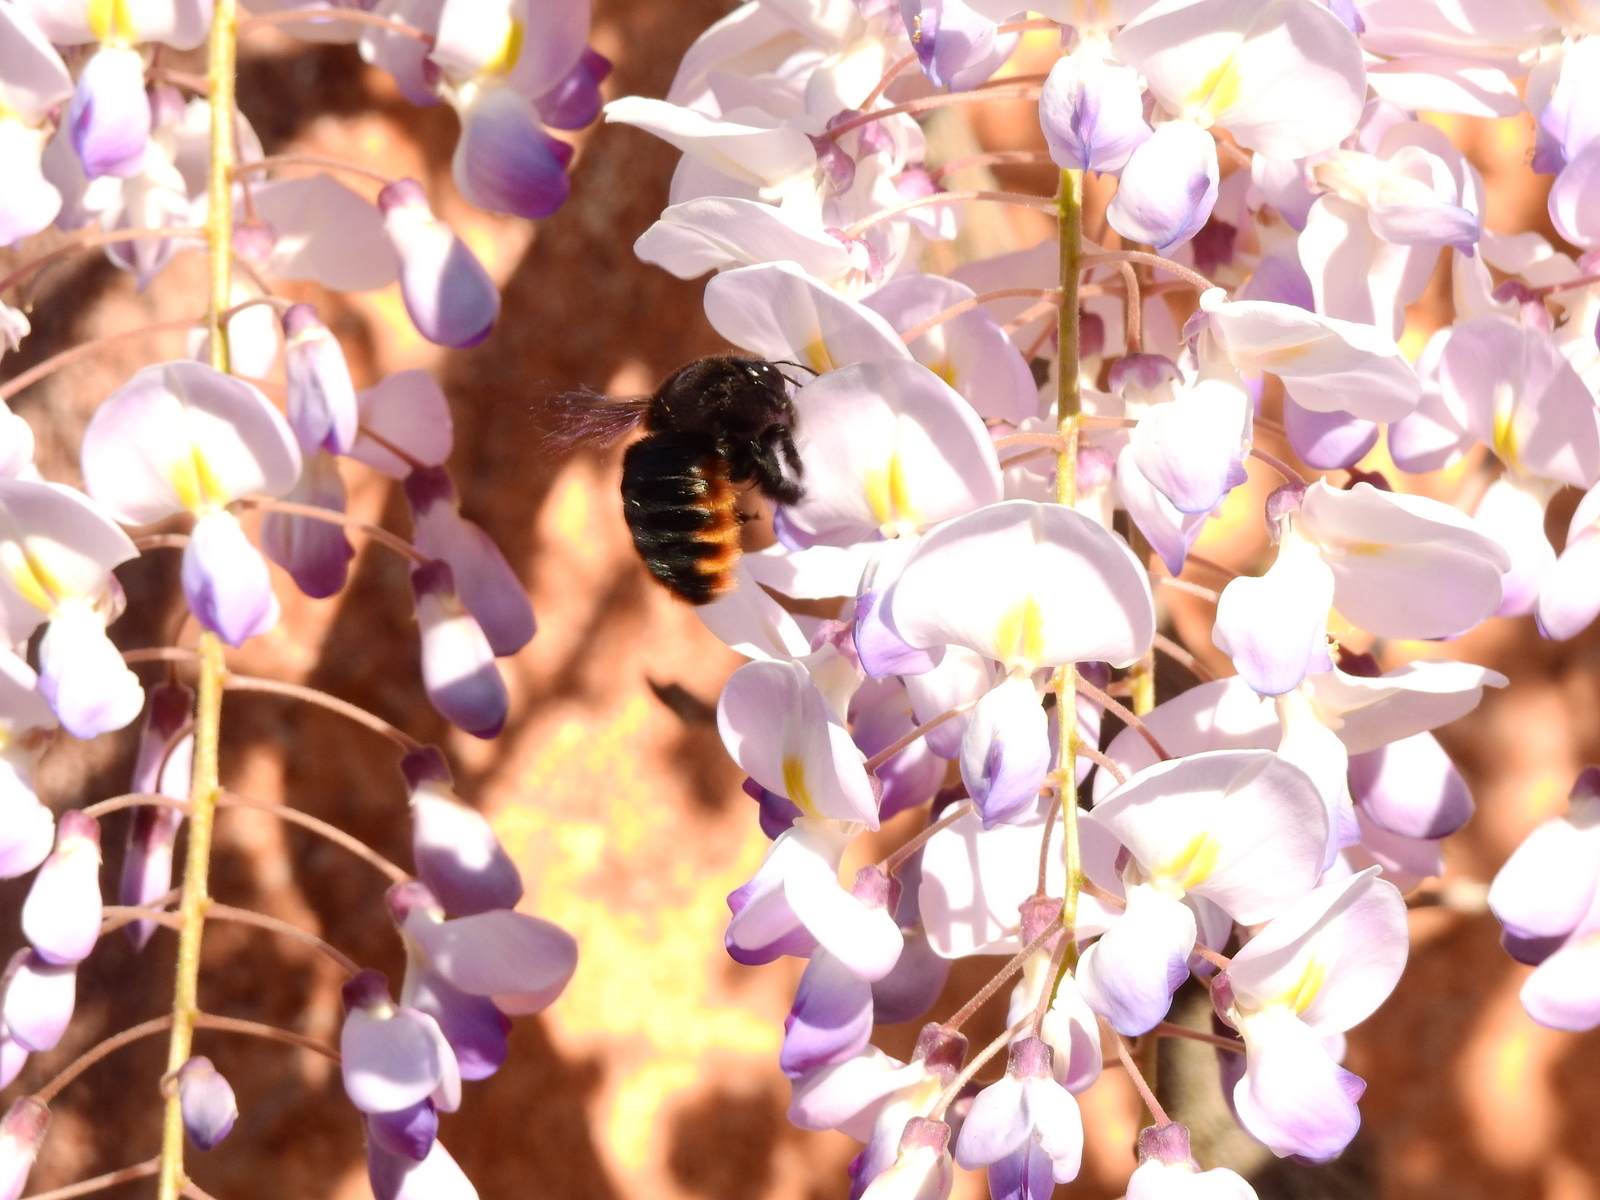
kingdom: Animalia
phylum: Arthropoda
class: Insecta
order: Hymenoptera
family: Apidae
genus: Xylocopa
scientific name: Xylocopa augusti
